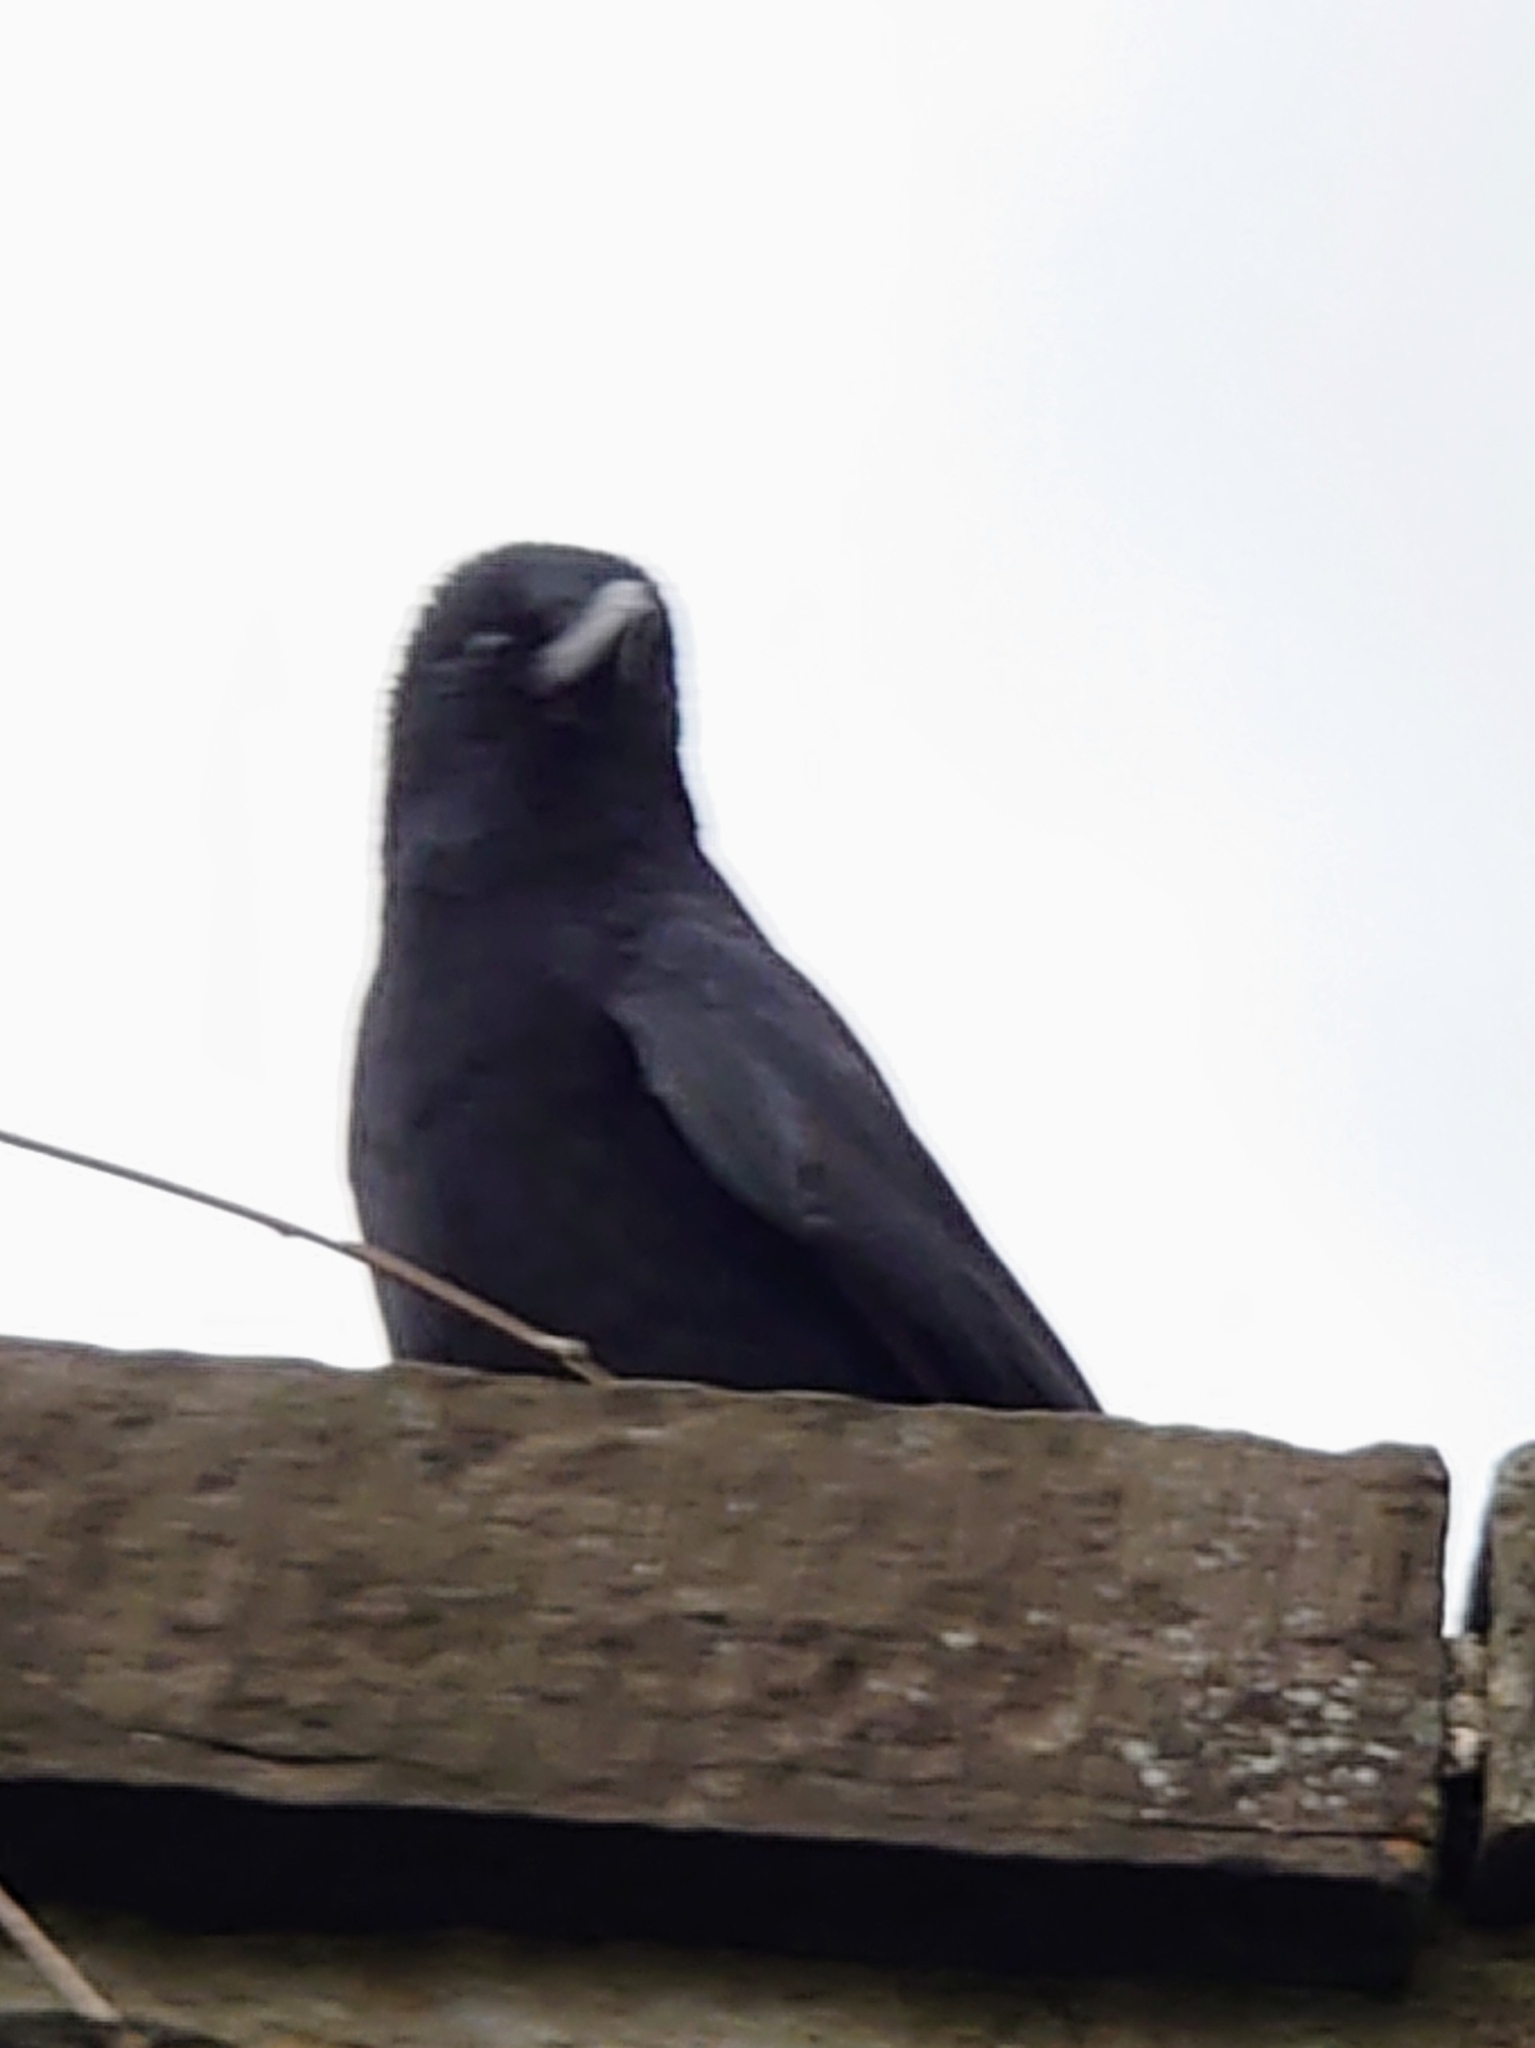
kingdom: Animalia
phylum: Chordata
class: Aves
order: Passeriformes
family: Corvidae
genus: Corvus
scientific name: Corvus corone
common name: Carrion crow
